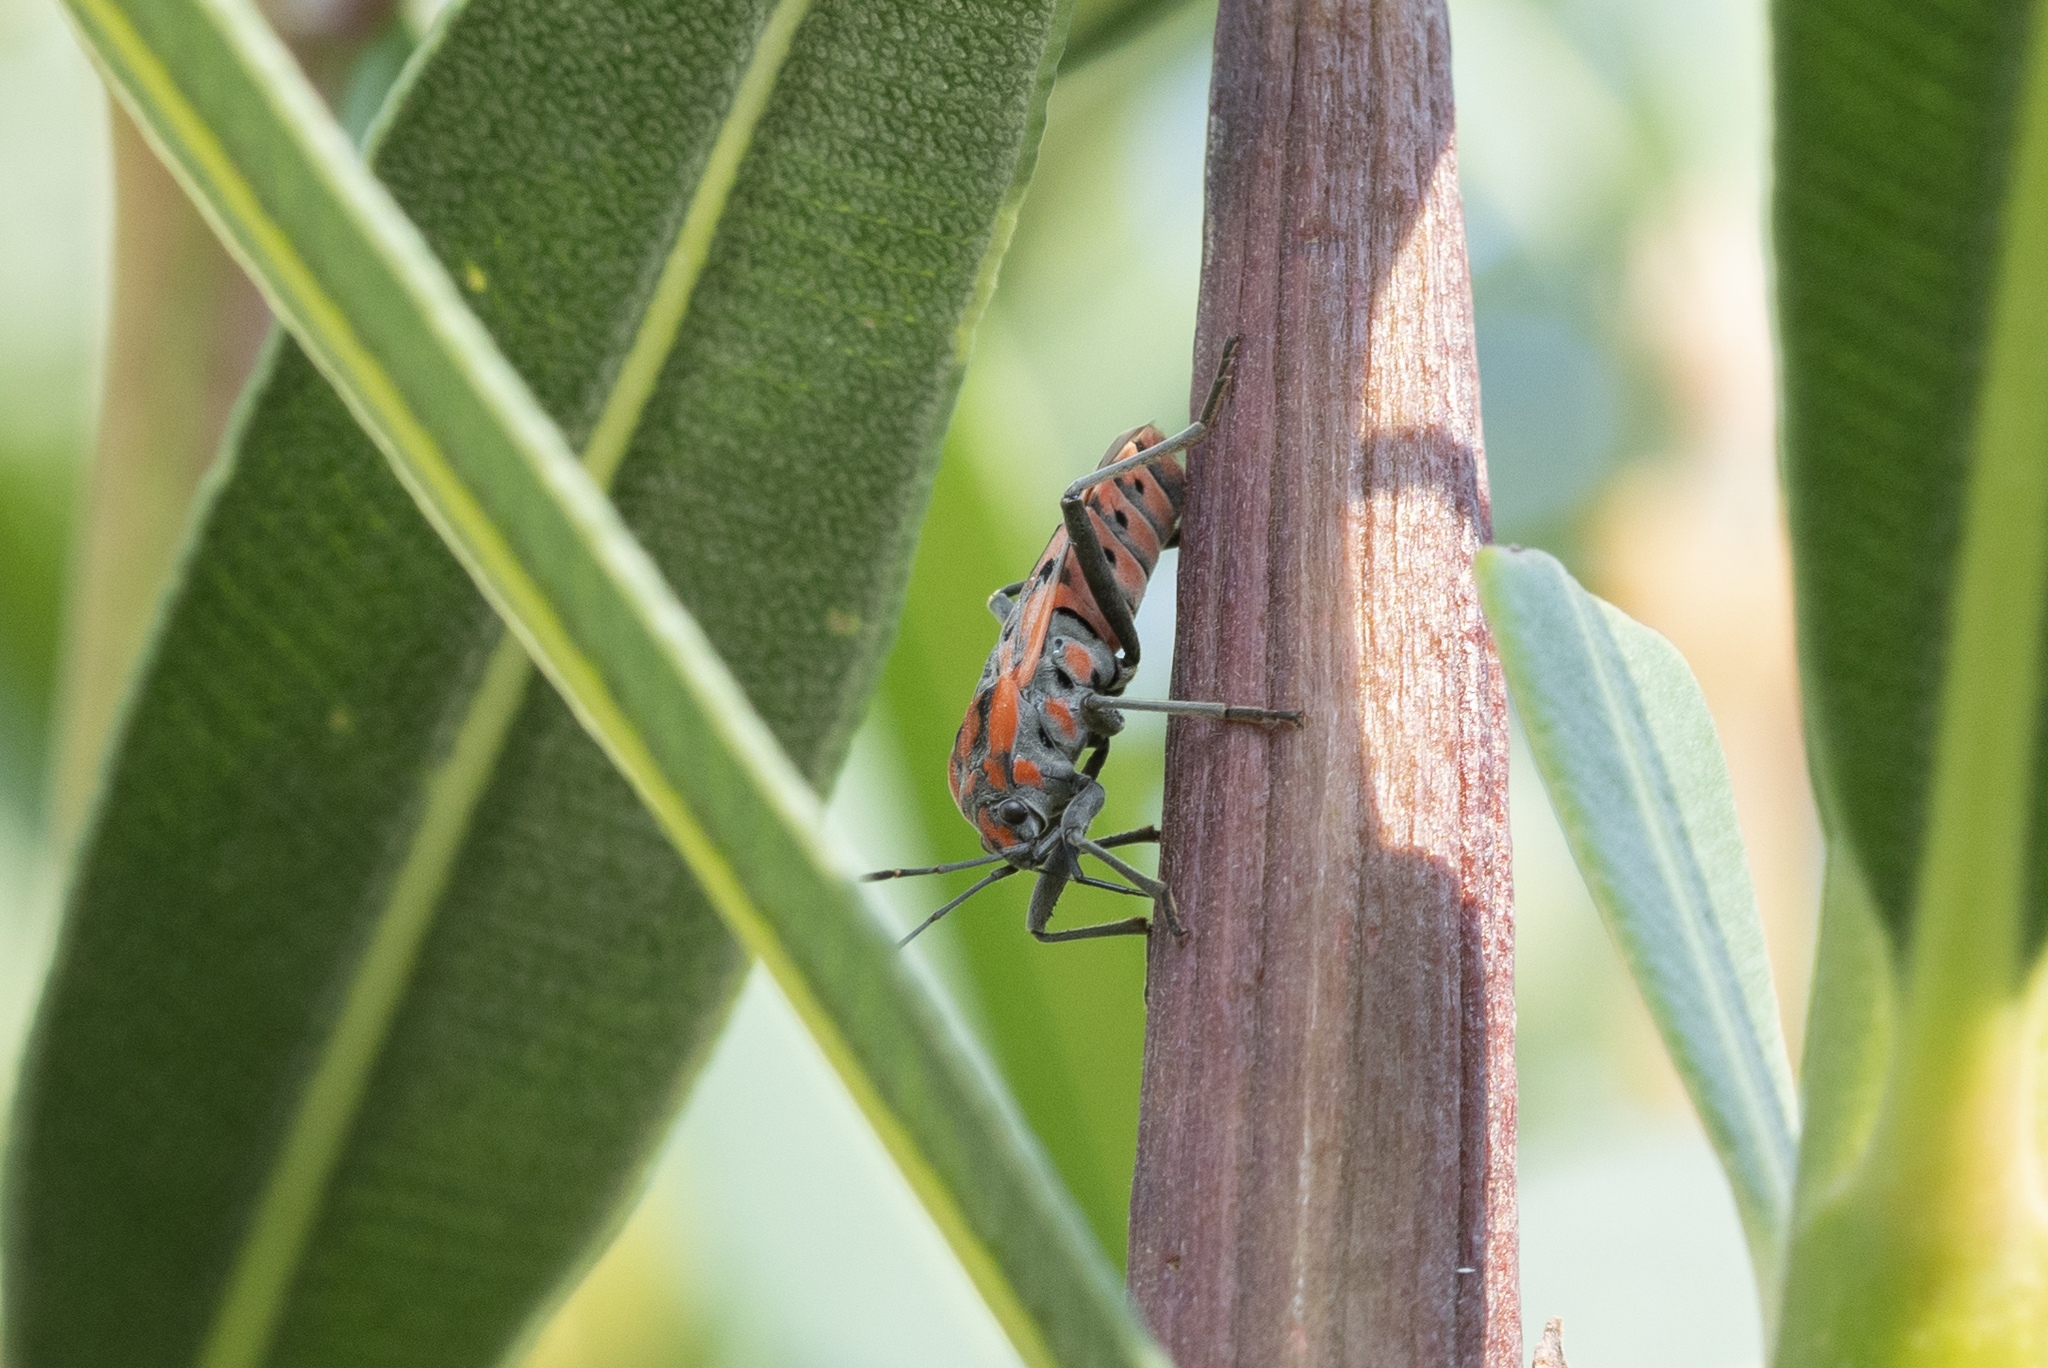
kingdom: Animalia
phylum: Arthropoda
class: Insecta
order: Hemiptera
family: Lygaeidae
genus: Spilostethus
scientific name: Spilostethus pandurus
